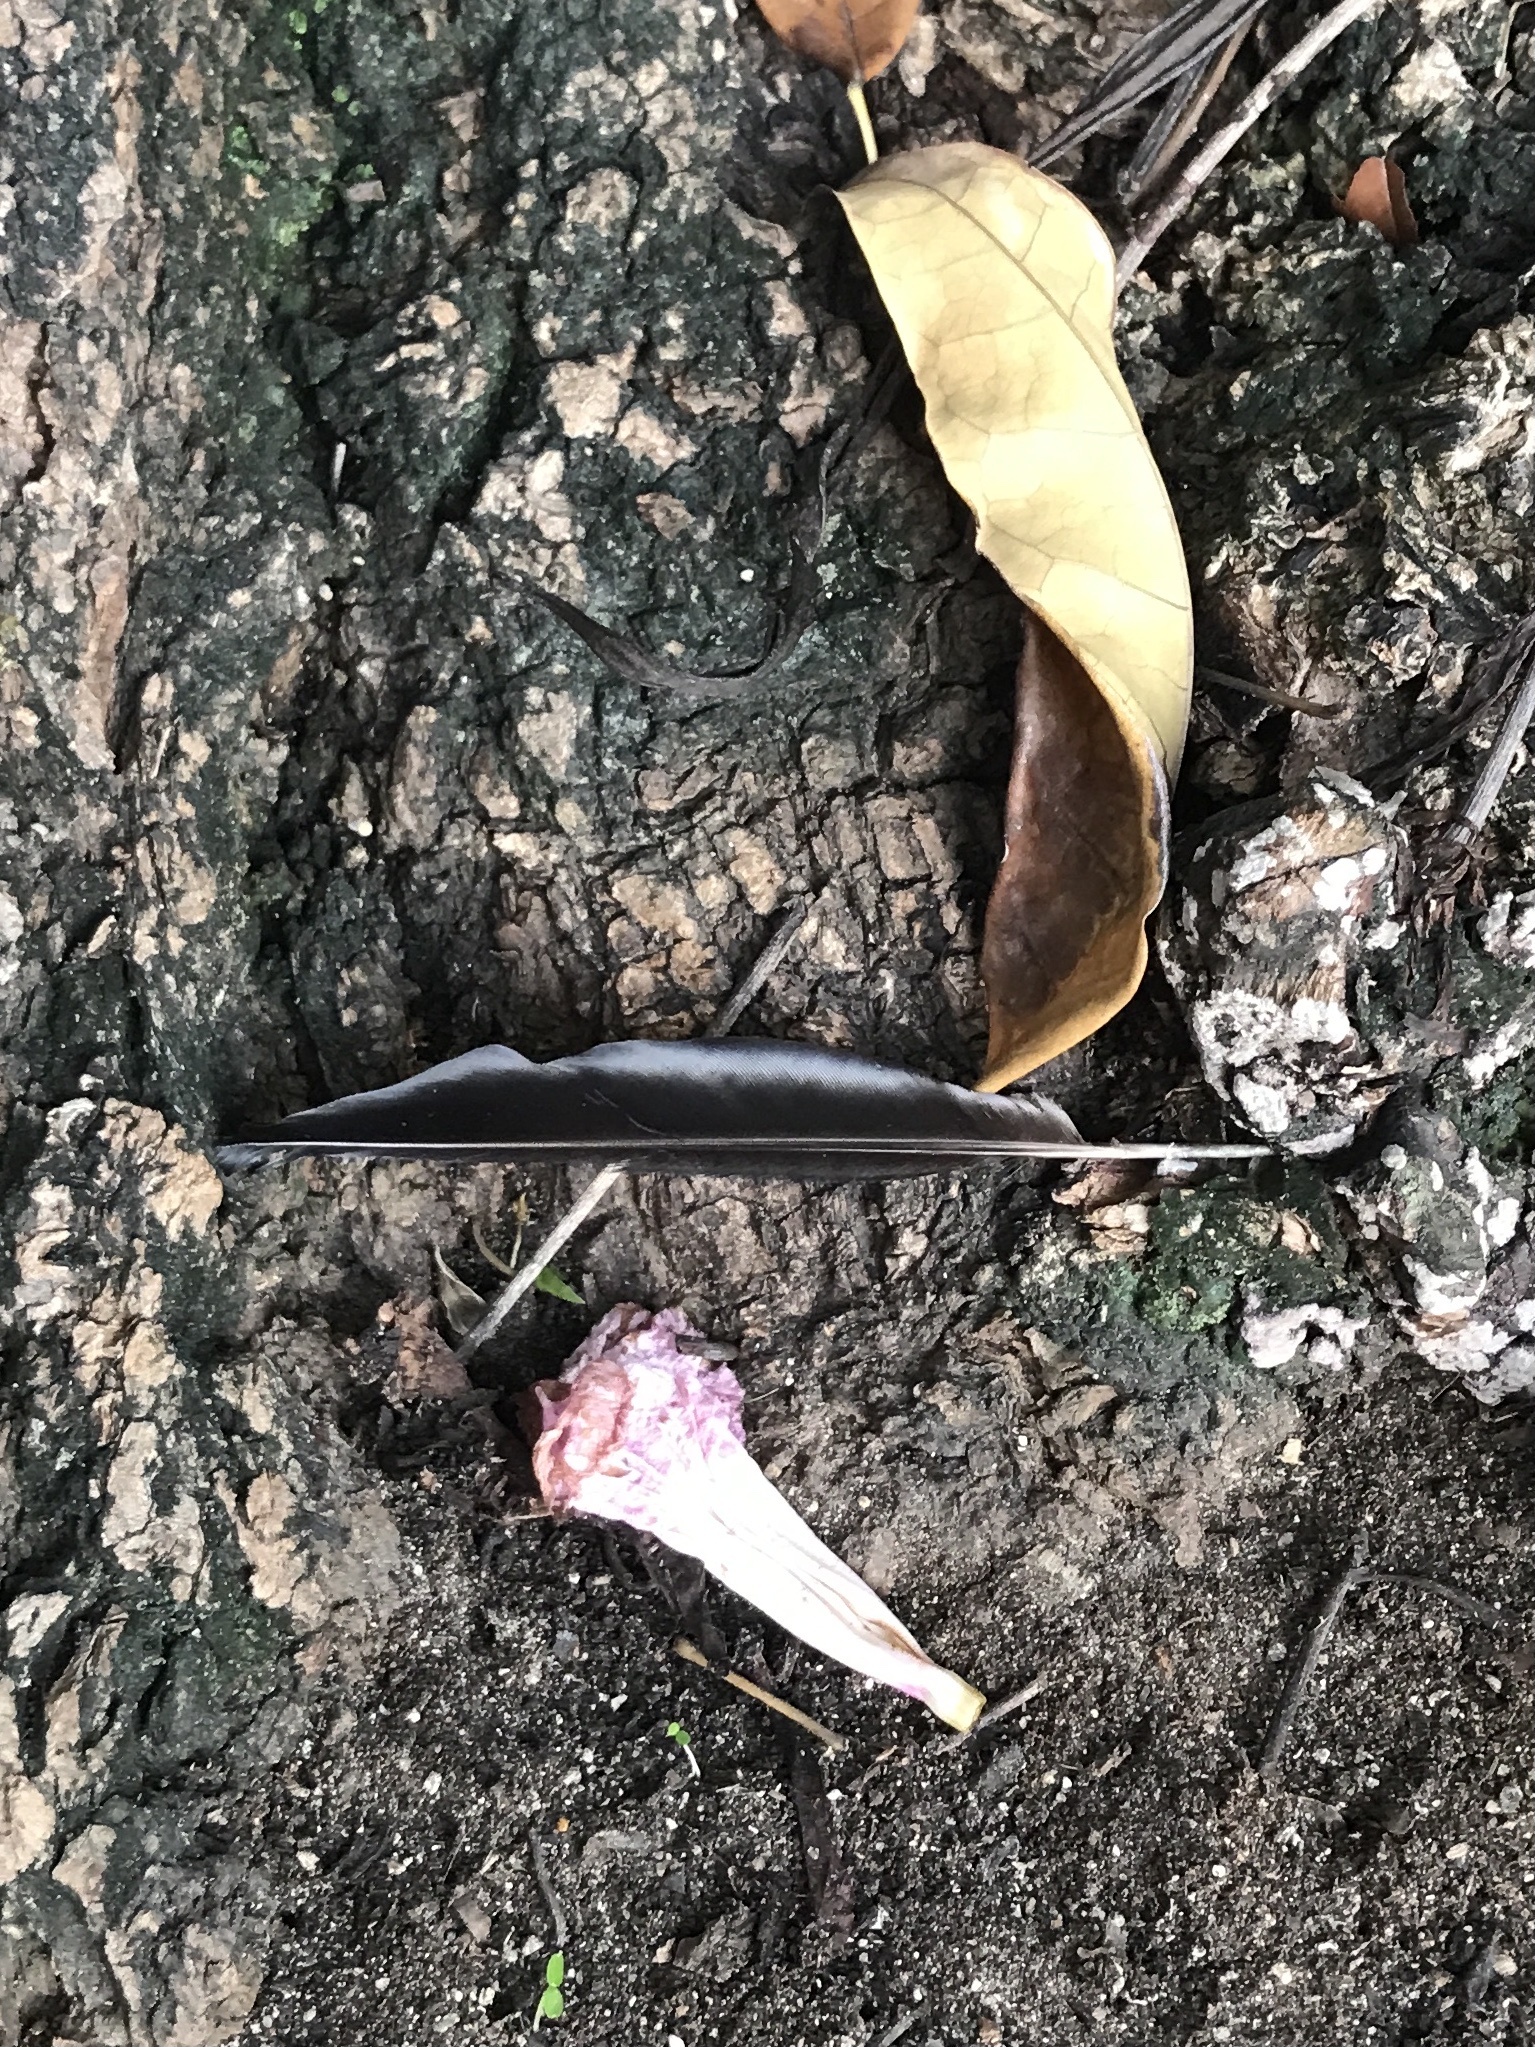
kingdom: Animalia
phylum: Chordata
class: Aves
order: Passeriformes
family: Icteridae
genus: Quiscalus
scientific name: Quiscalus niger
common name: Greater antillean grackle
